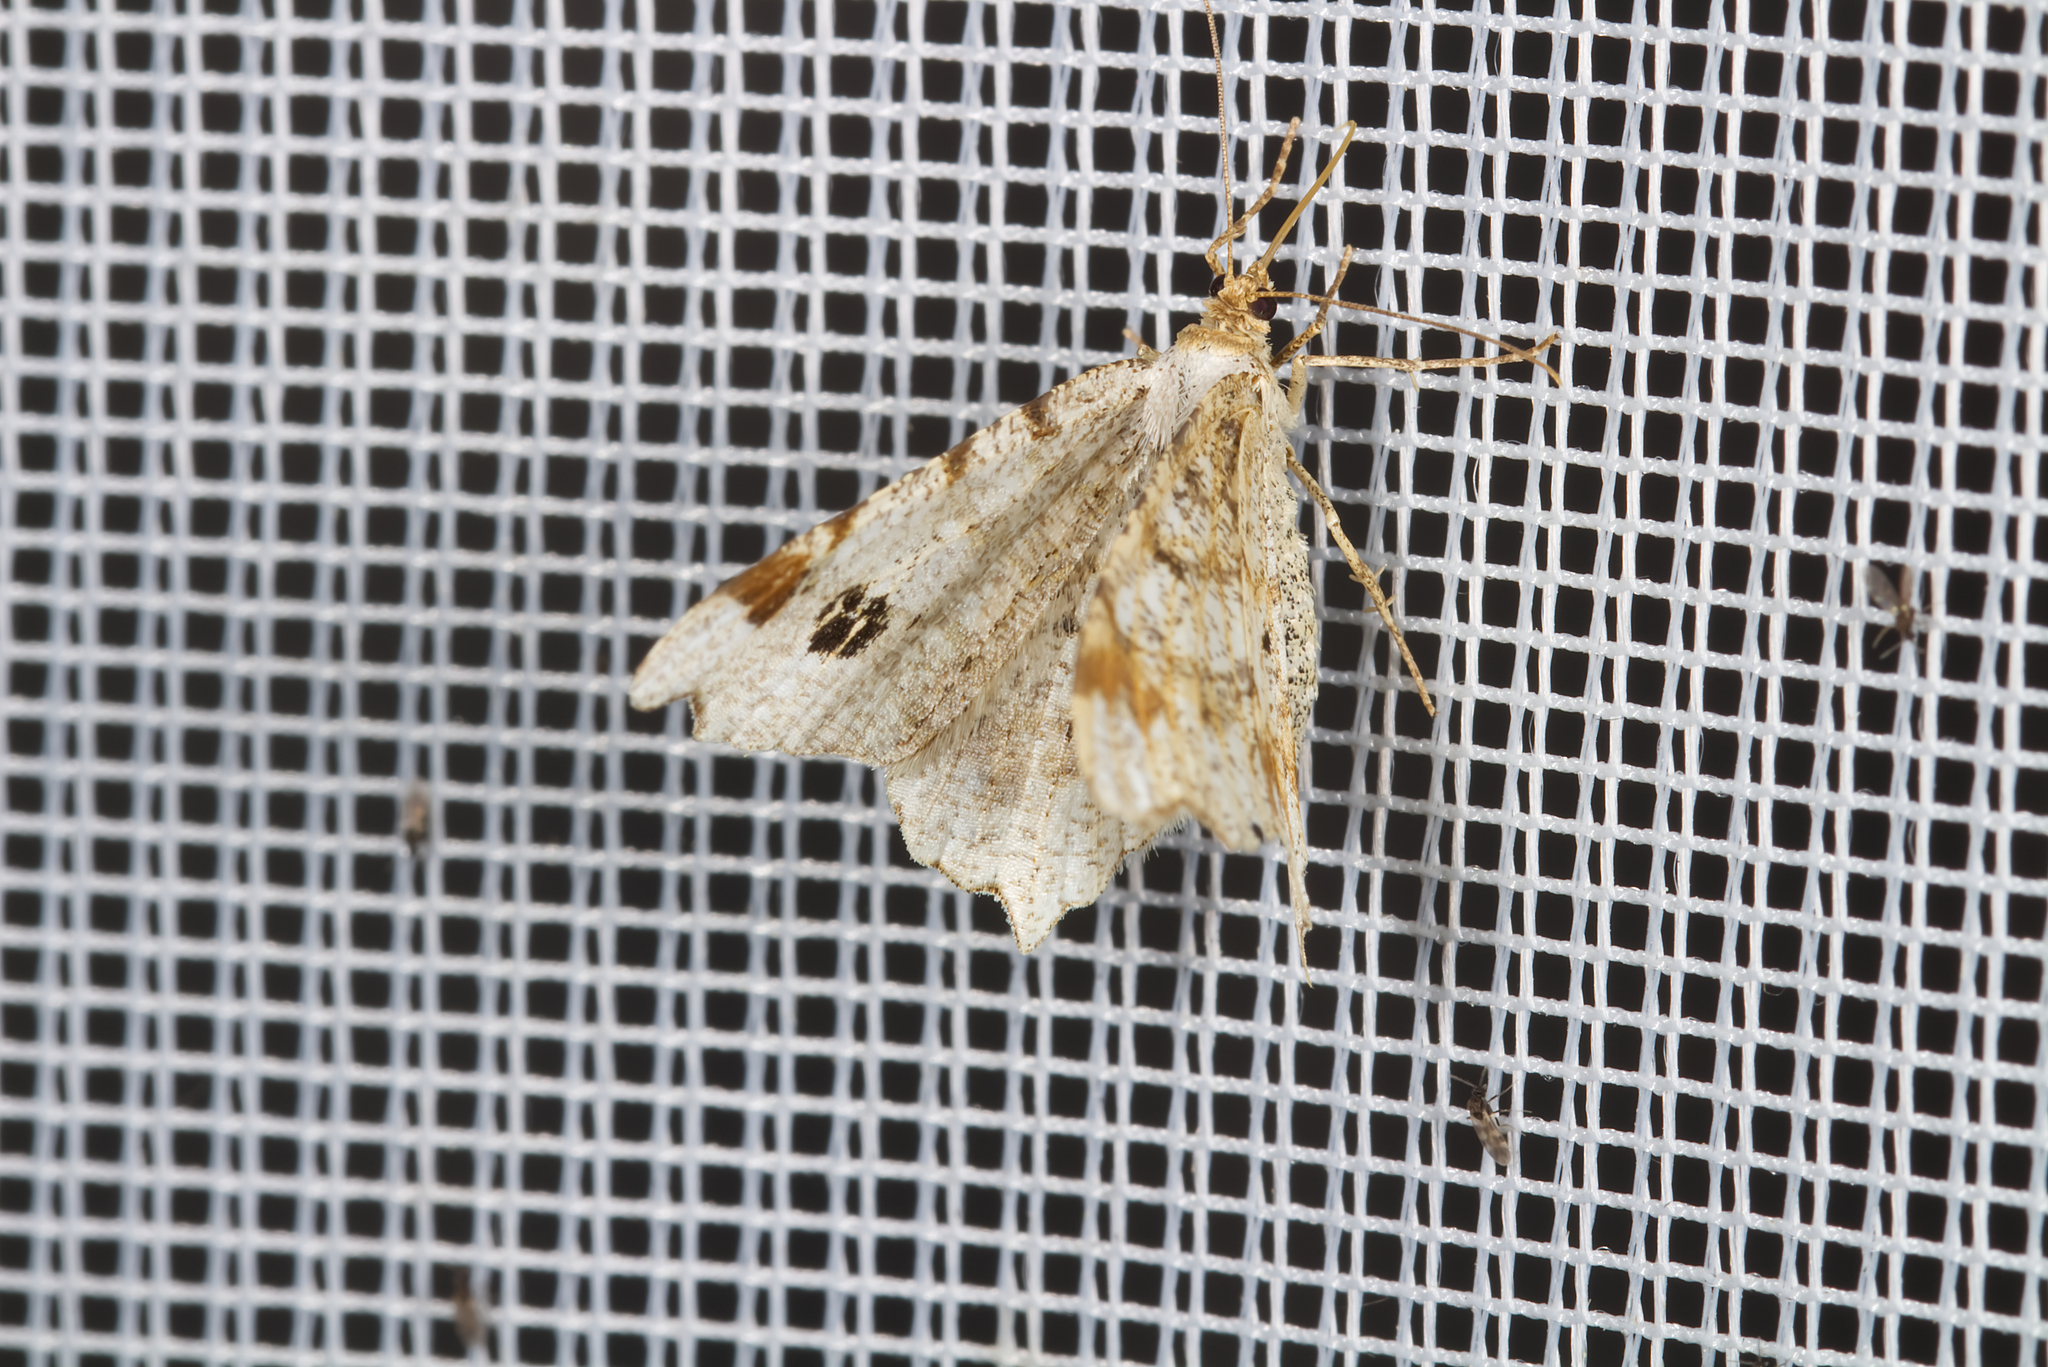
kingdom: Animalia
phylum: Arthropoda
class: Insecta
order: Lepidoptera
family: Geometridae
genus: Macaria
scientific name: Macaria notata
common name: Peacock moth
